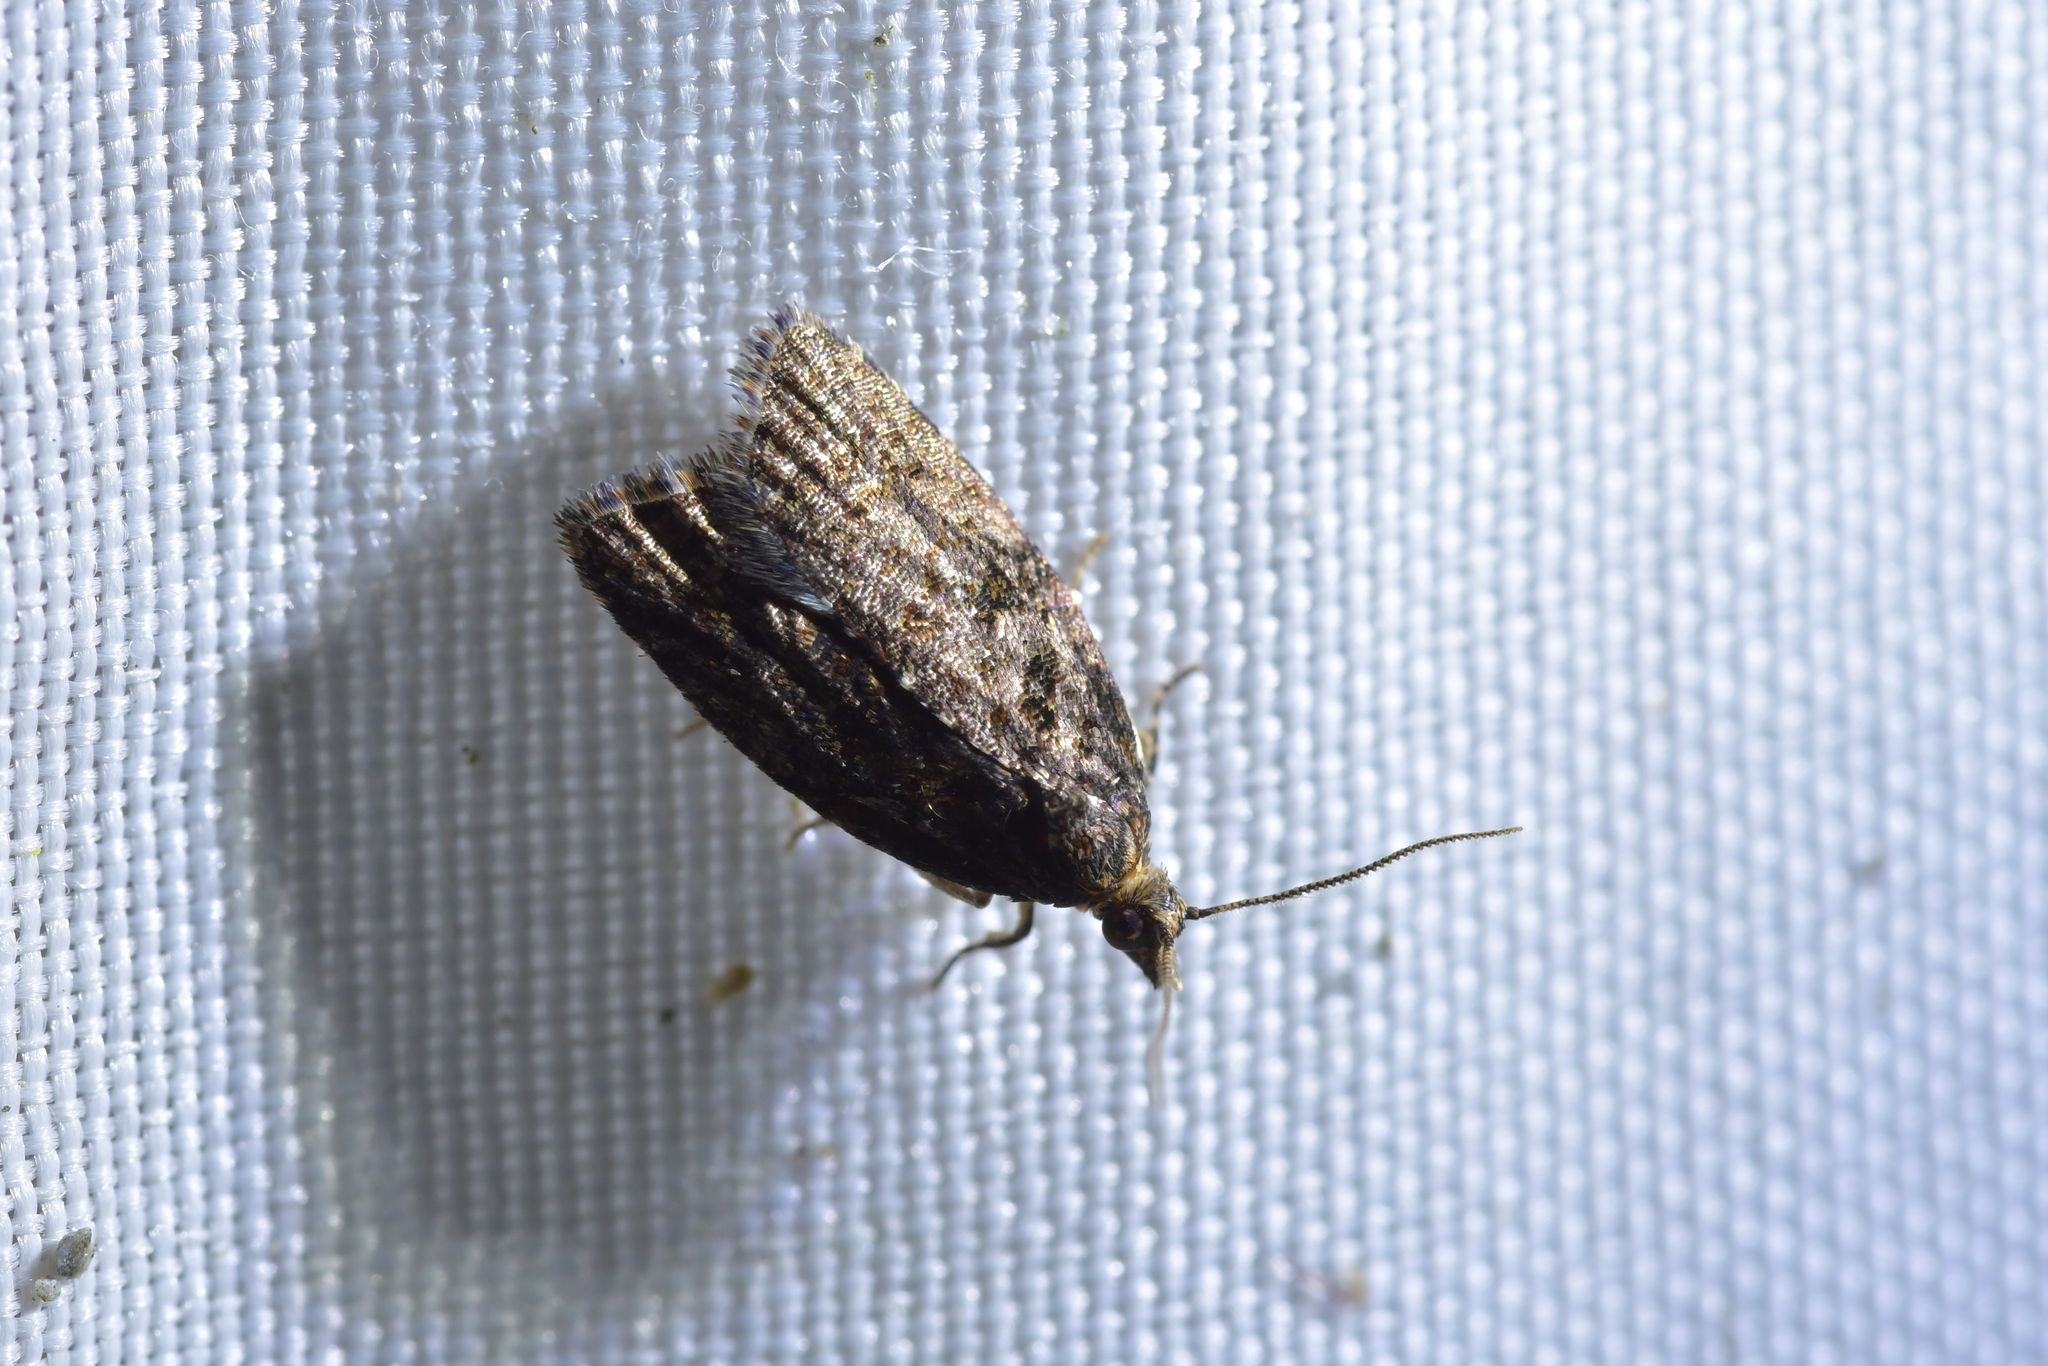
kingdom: Animalia
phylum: Arthropoda
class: Insecta
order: Lepidoptera
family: Tortricidae
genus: Capua
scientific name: Capua intractana
